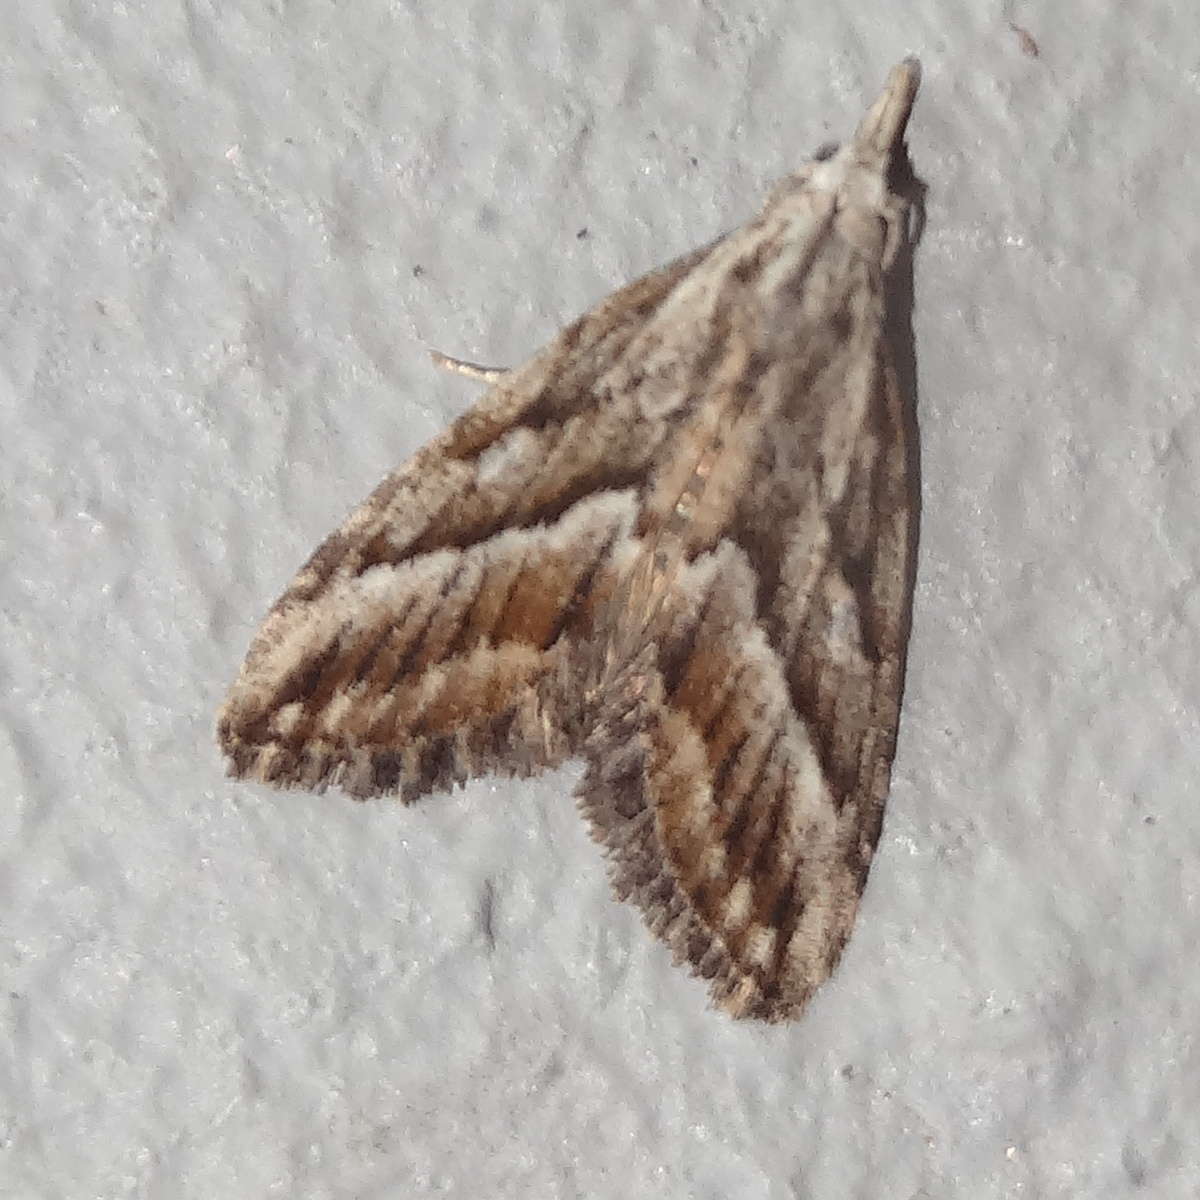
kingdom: Animalia
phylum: Arthropoda
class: Insecta
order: Lepidoptera
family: Nolidae
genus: Nola
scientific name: Nola phaeogramma
